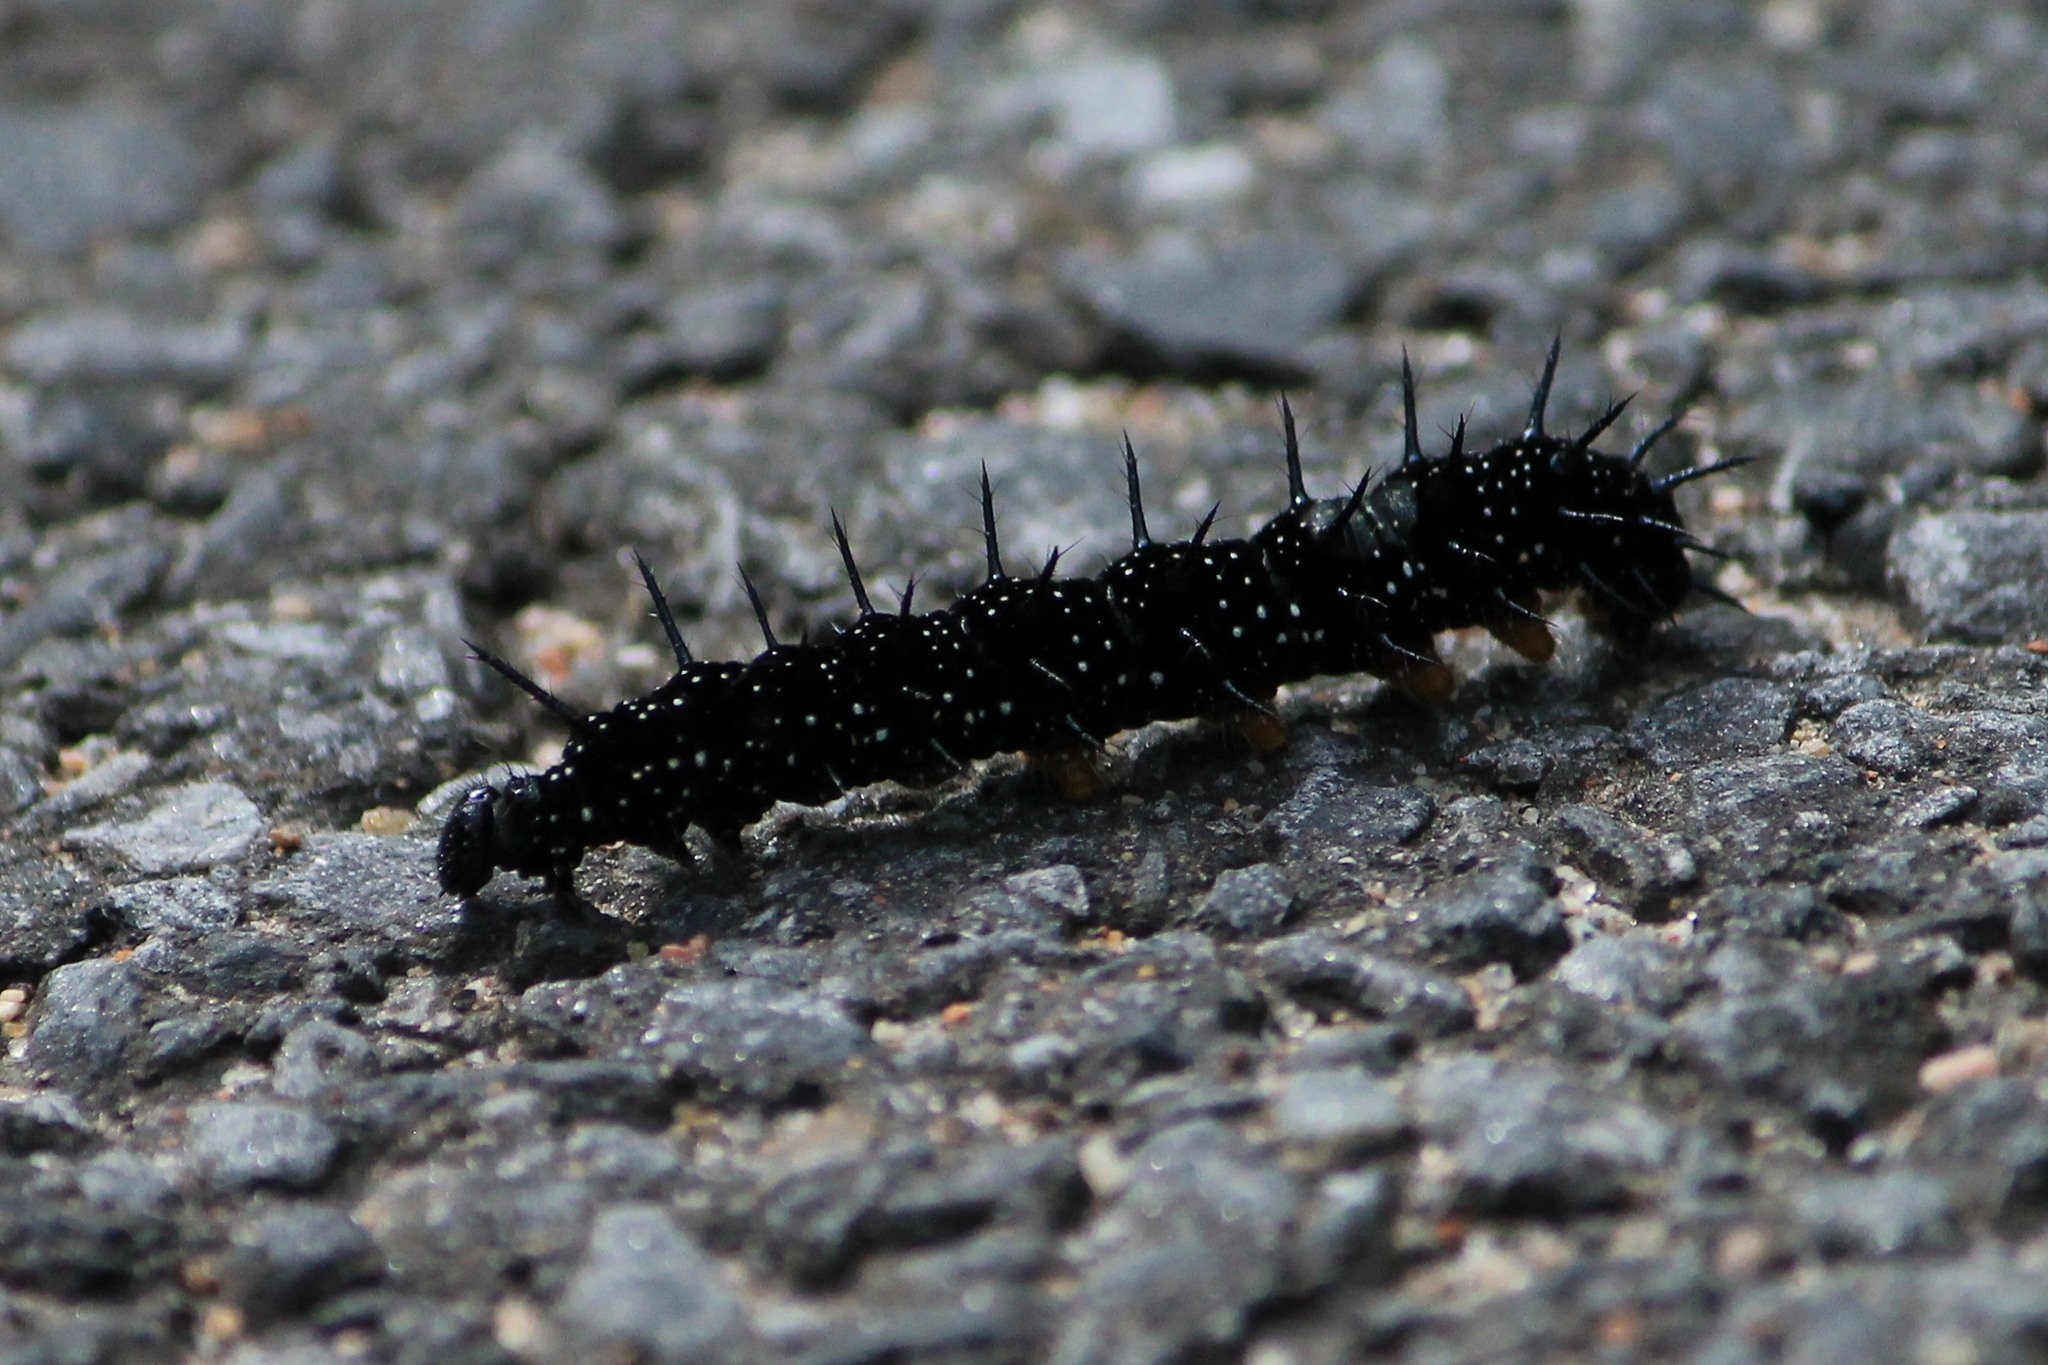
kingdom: Animalia
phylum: Arthropoda
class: Insecta
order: Lepidoptera
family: Nymphalidae
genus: Aglais
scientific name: Aglais io
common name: Peacock
